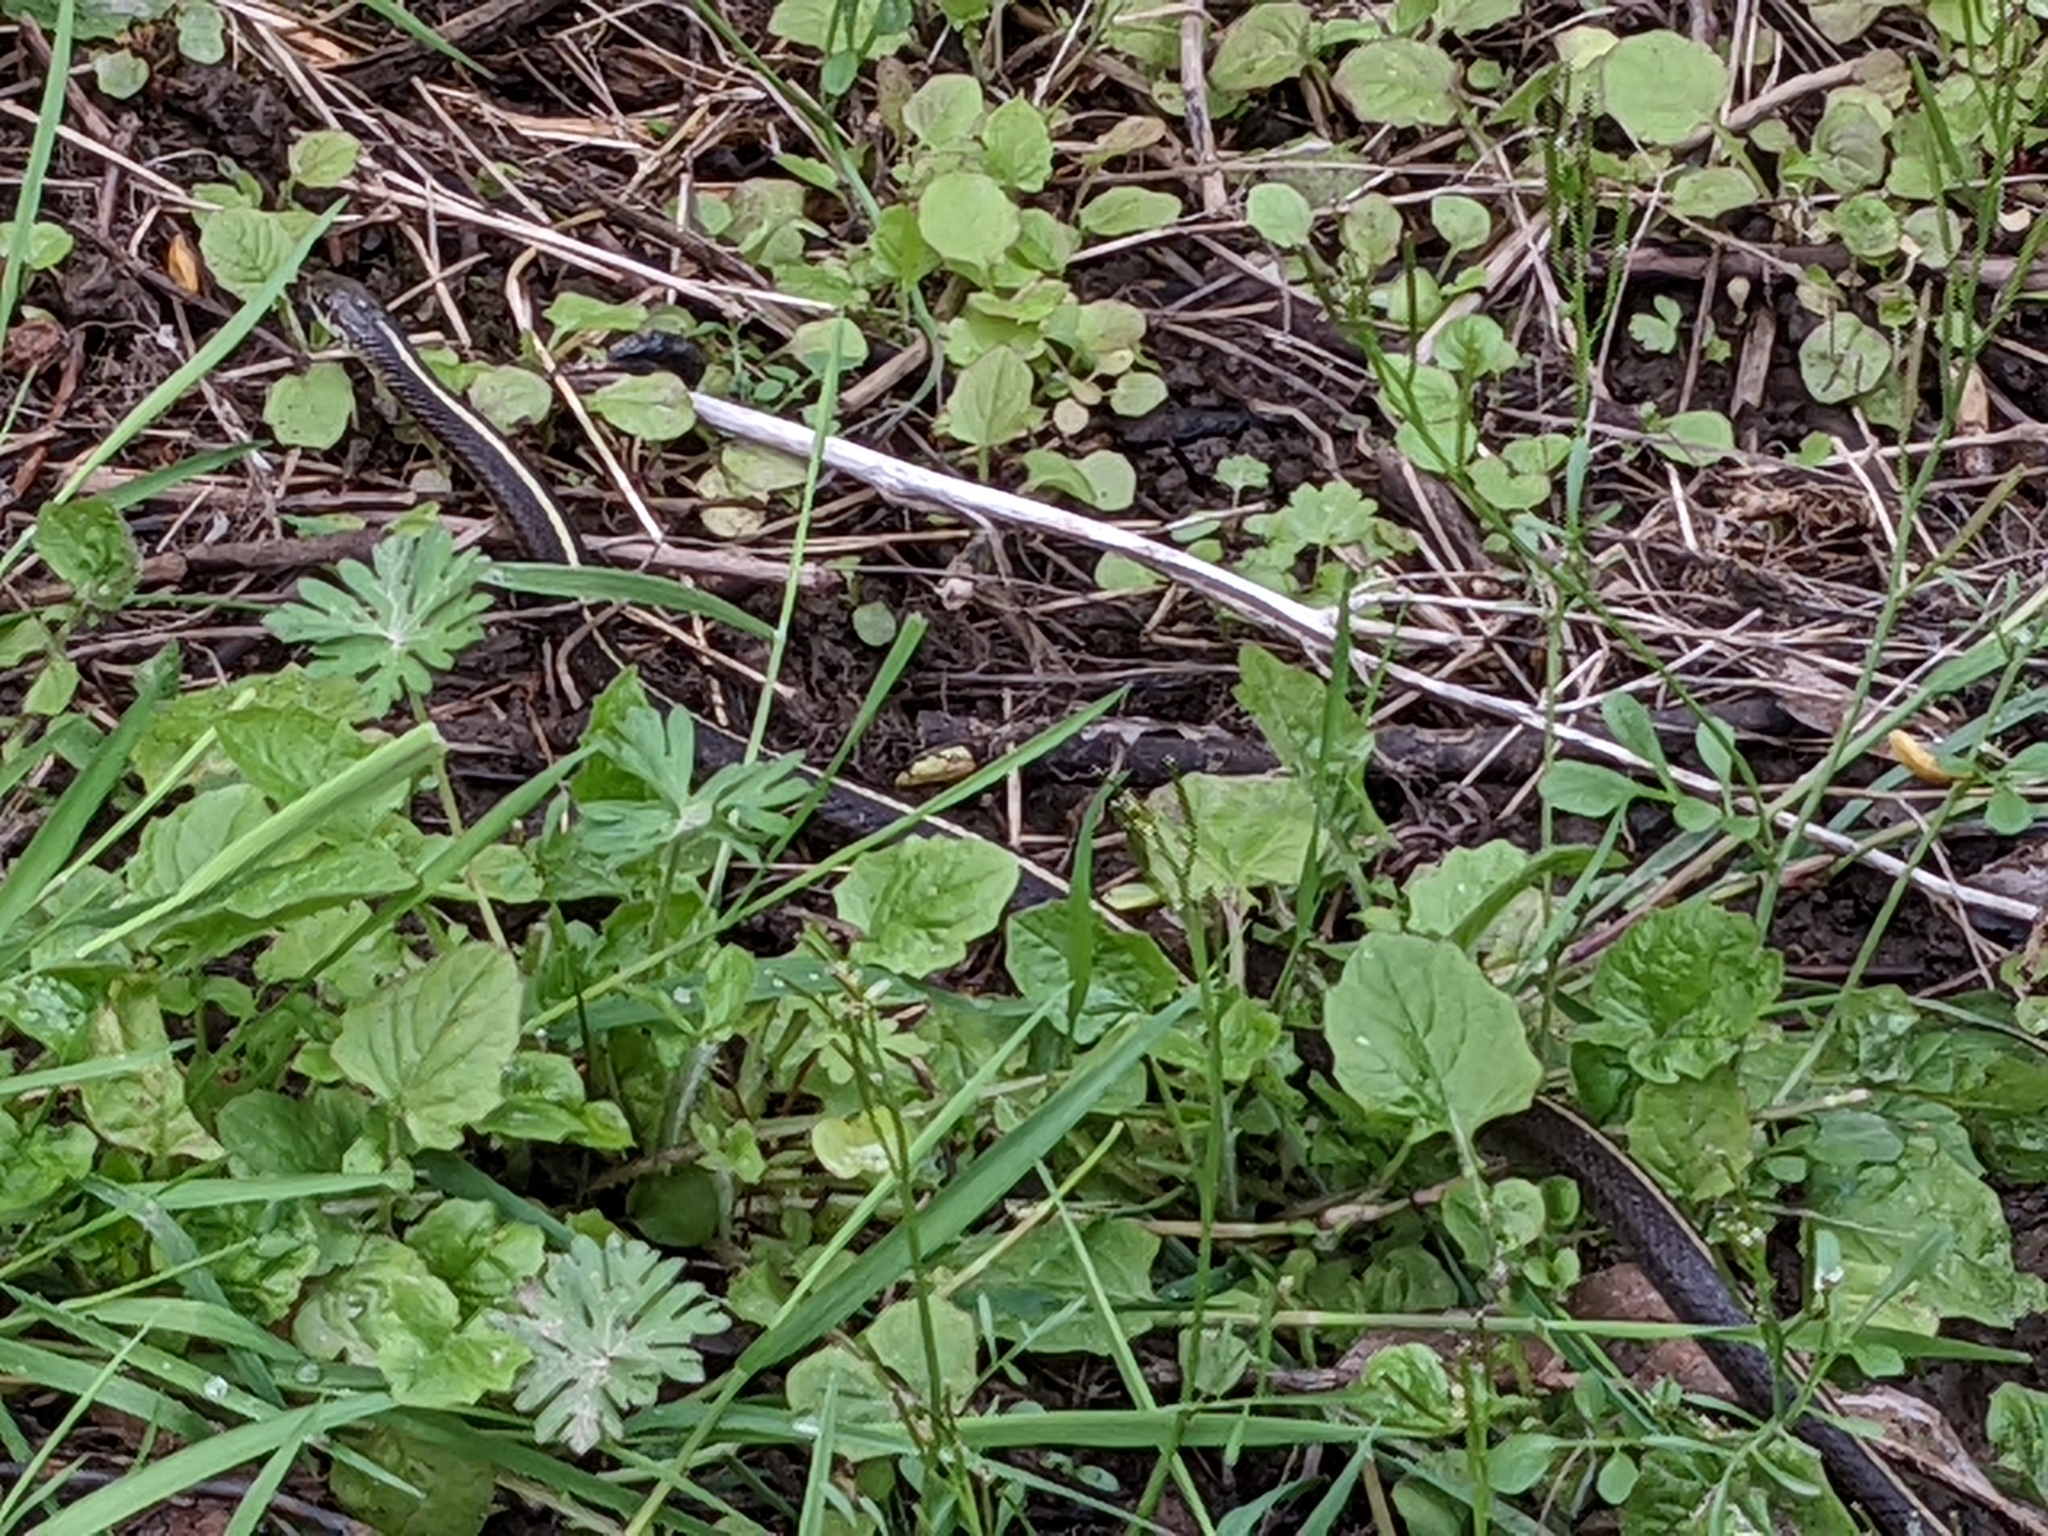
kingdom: Animalia
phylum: Chordata
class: Squamata
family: Colubridae
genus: Thamnophis
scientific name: Thamnophis ordinoides
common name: Northwestern garter snake
